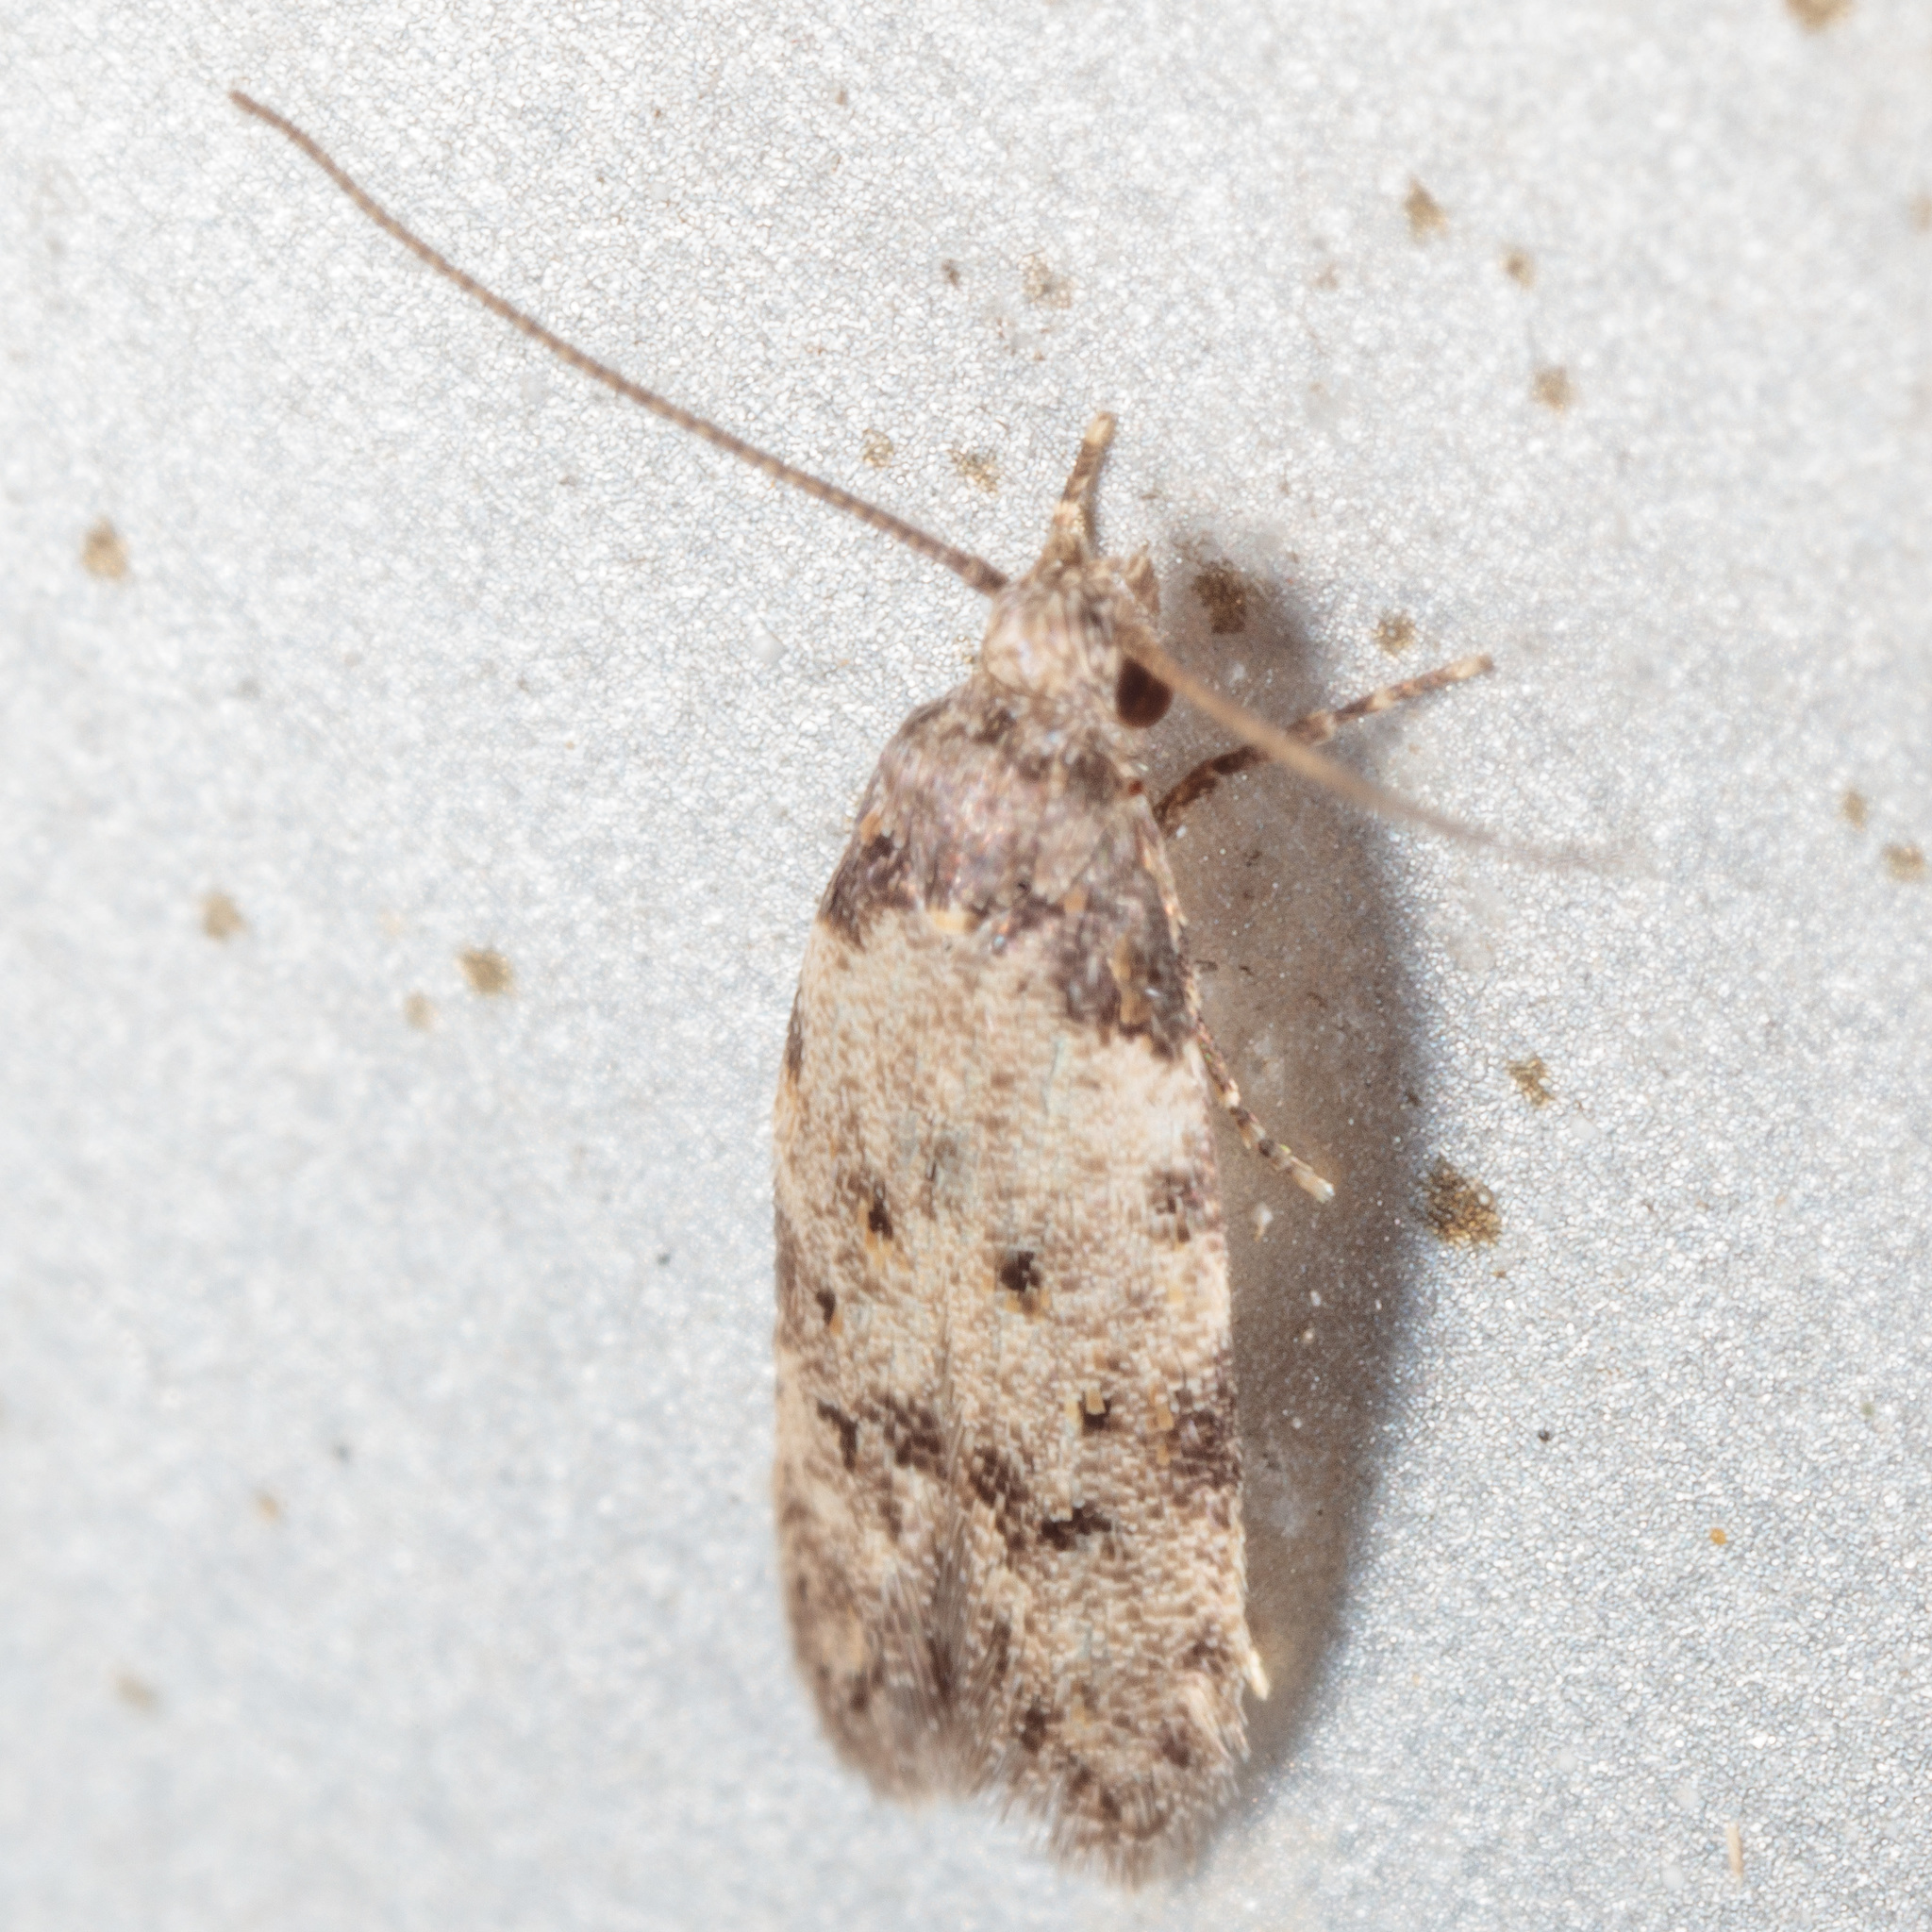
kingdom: Animalia
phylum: Arthropoda
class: Insecta
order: Lepidoptera
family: Autostichidae
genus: Taygete
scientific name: Taygete attributella
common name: Triangle-marked twirler moth
